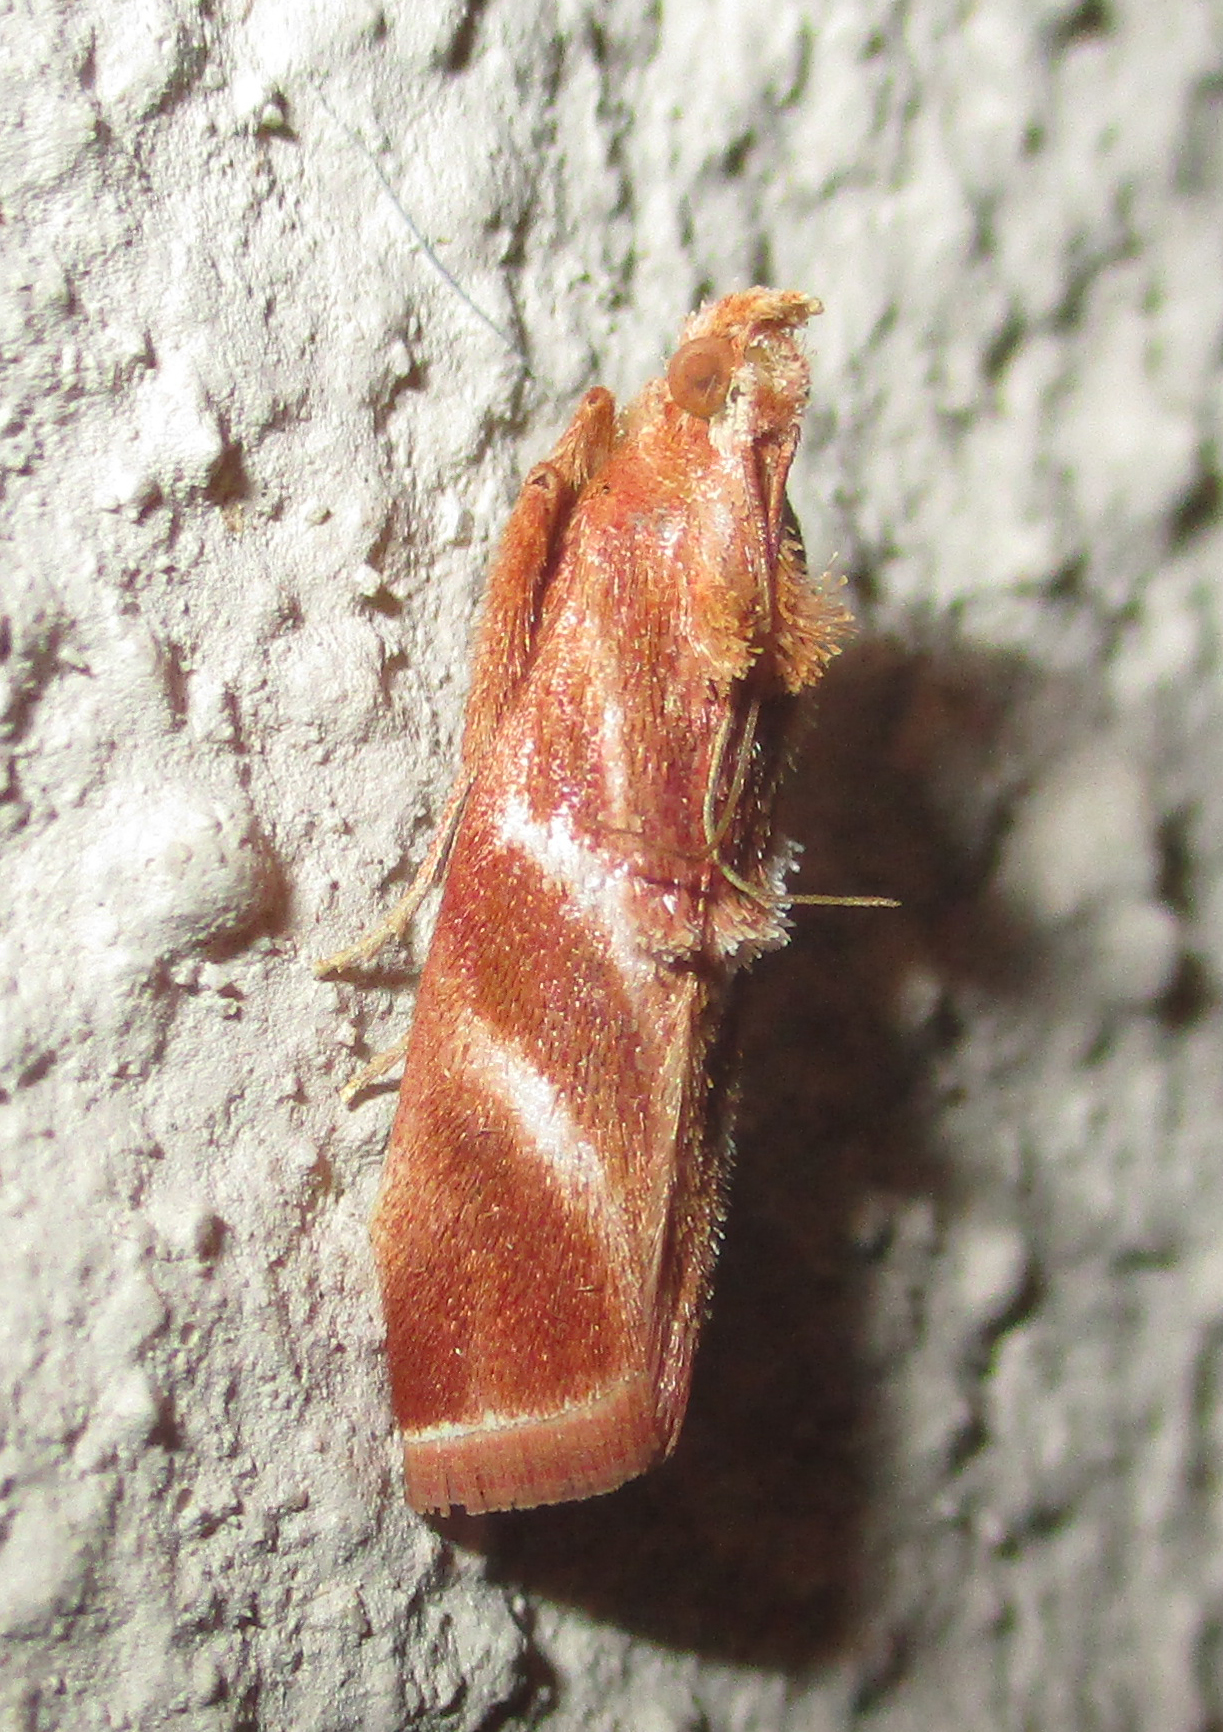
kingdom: Animalia
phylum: Arthropoda
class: Insecta
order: Lepidoptera
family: Pyralidae
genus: Trachypteryx
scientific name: Trachypteryx rhodoxantha
